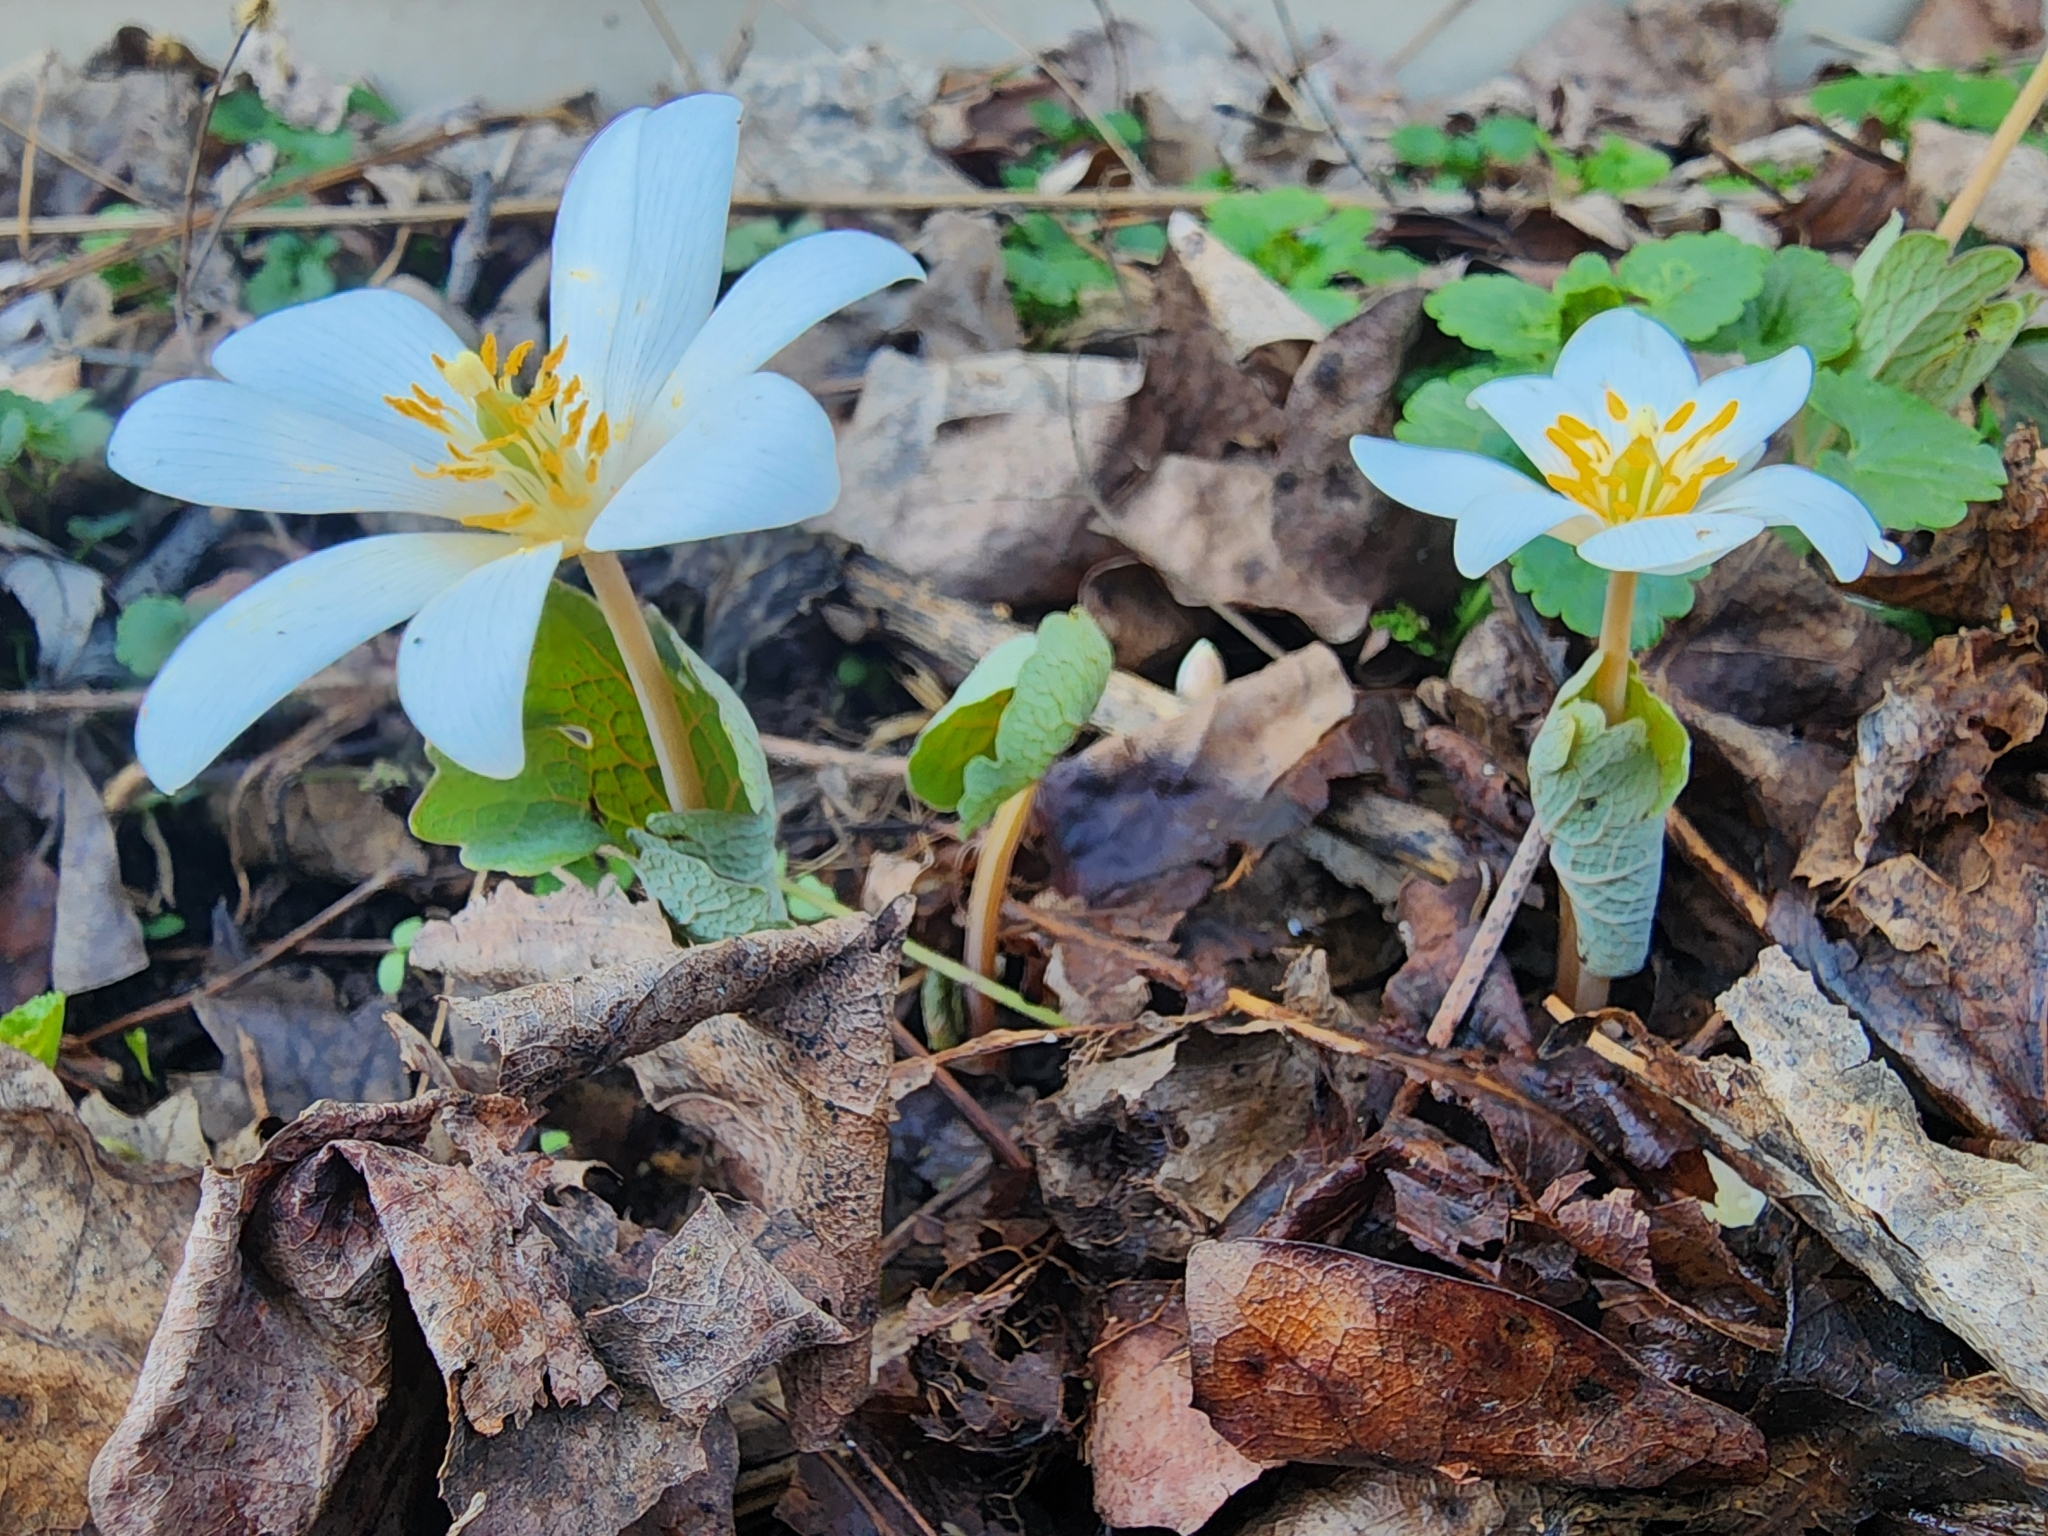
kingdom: Plantae
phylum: Tracheophyta
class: Magnoliopsida
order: Ranunculales
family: Papaveraceae
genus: Sanguinaria
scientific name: Sanguinaria canadensis
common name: Bloodroot
